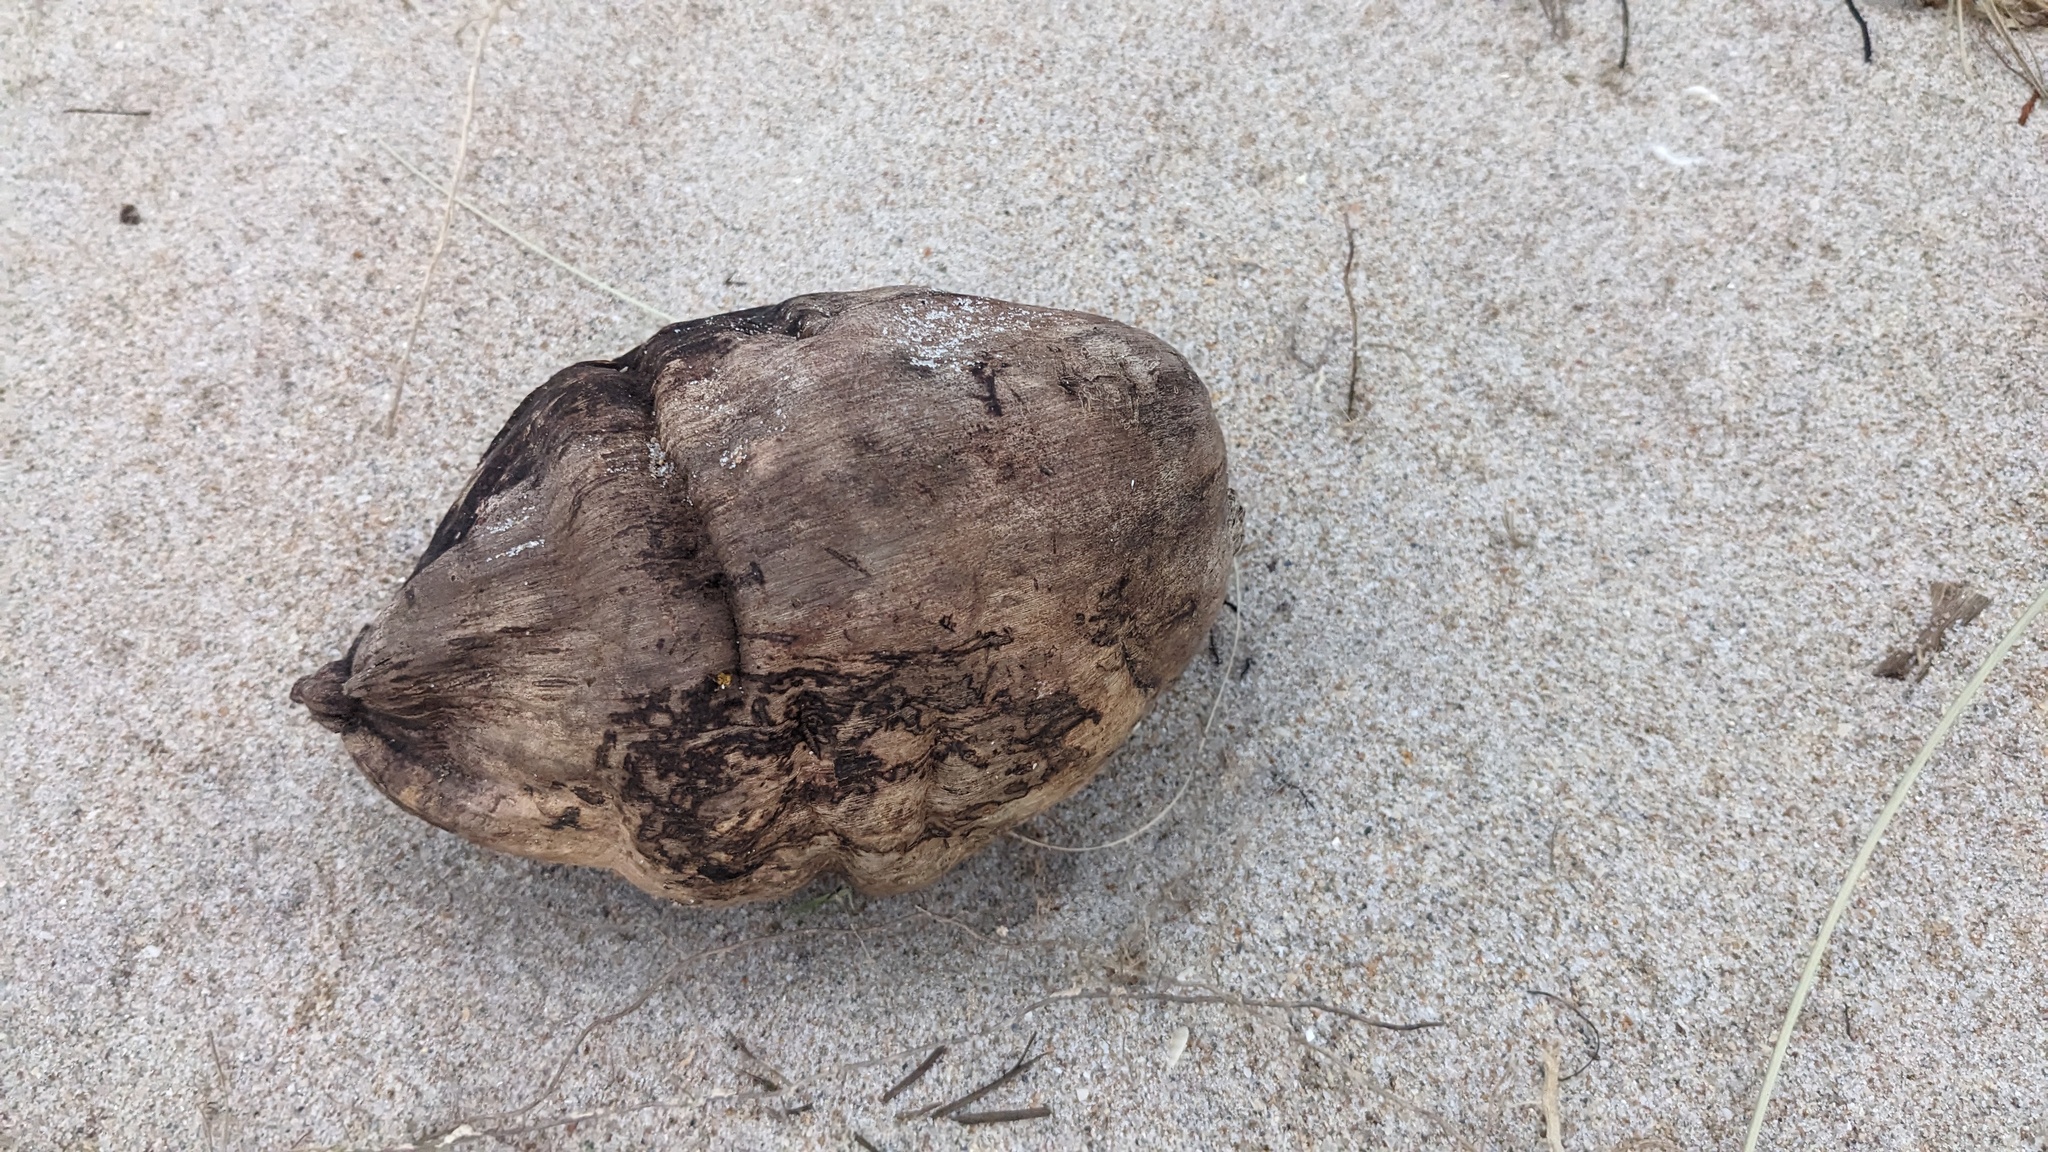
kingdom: Plantae
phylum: Tracheophyta
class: Liliopsida
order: Arecales
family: Arecaceae
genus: Cocos
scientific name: Cocos nucifera
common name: Coconut palm
